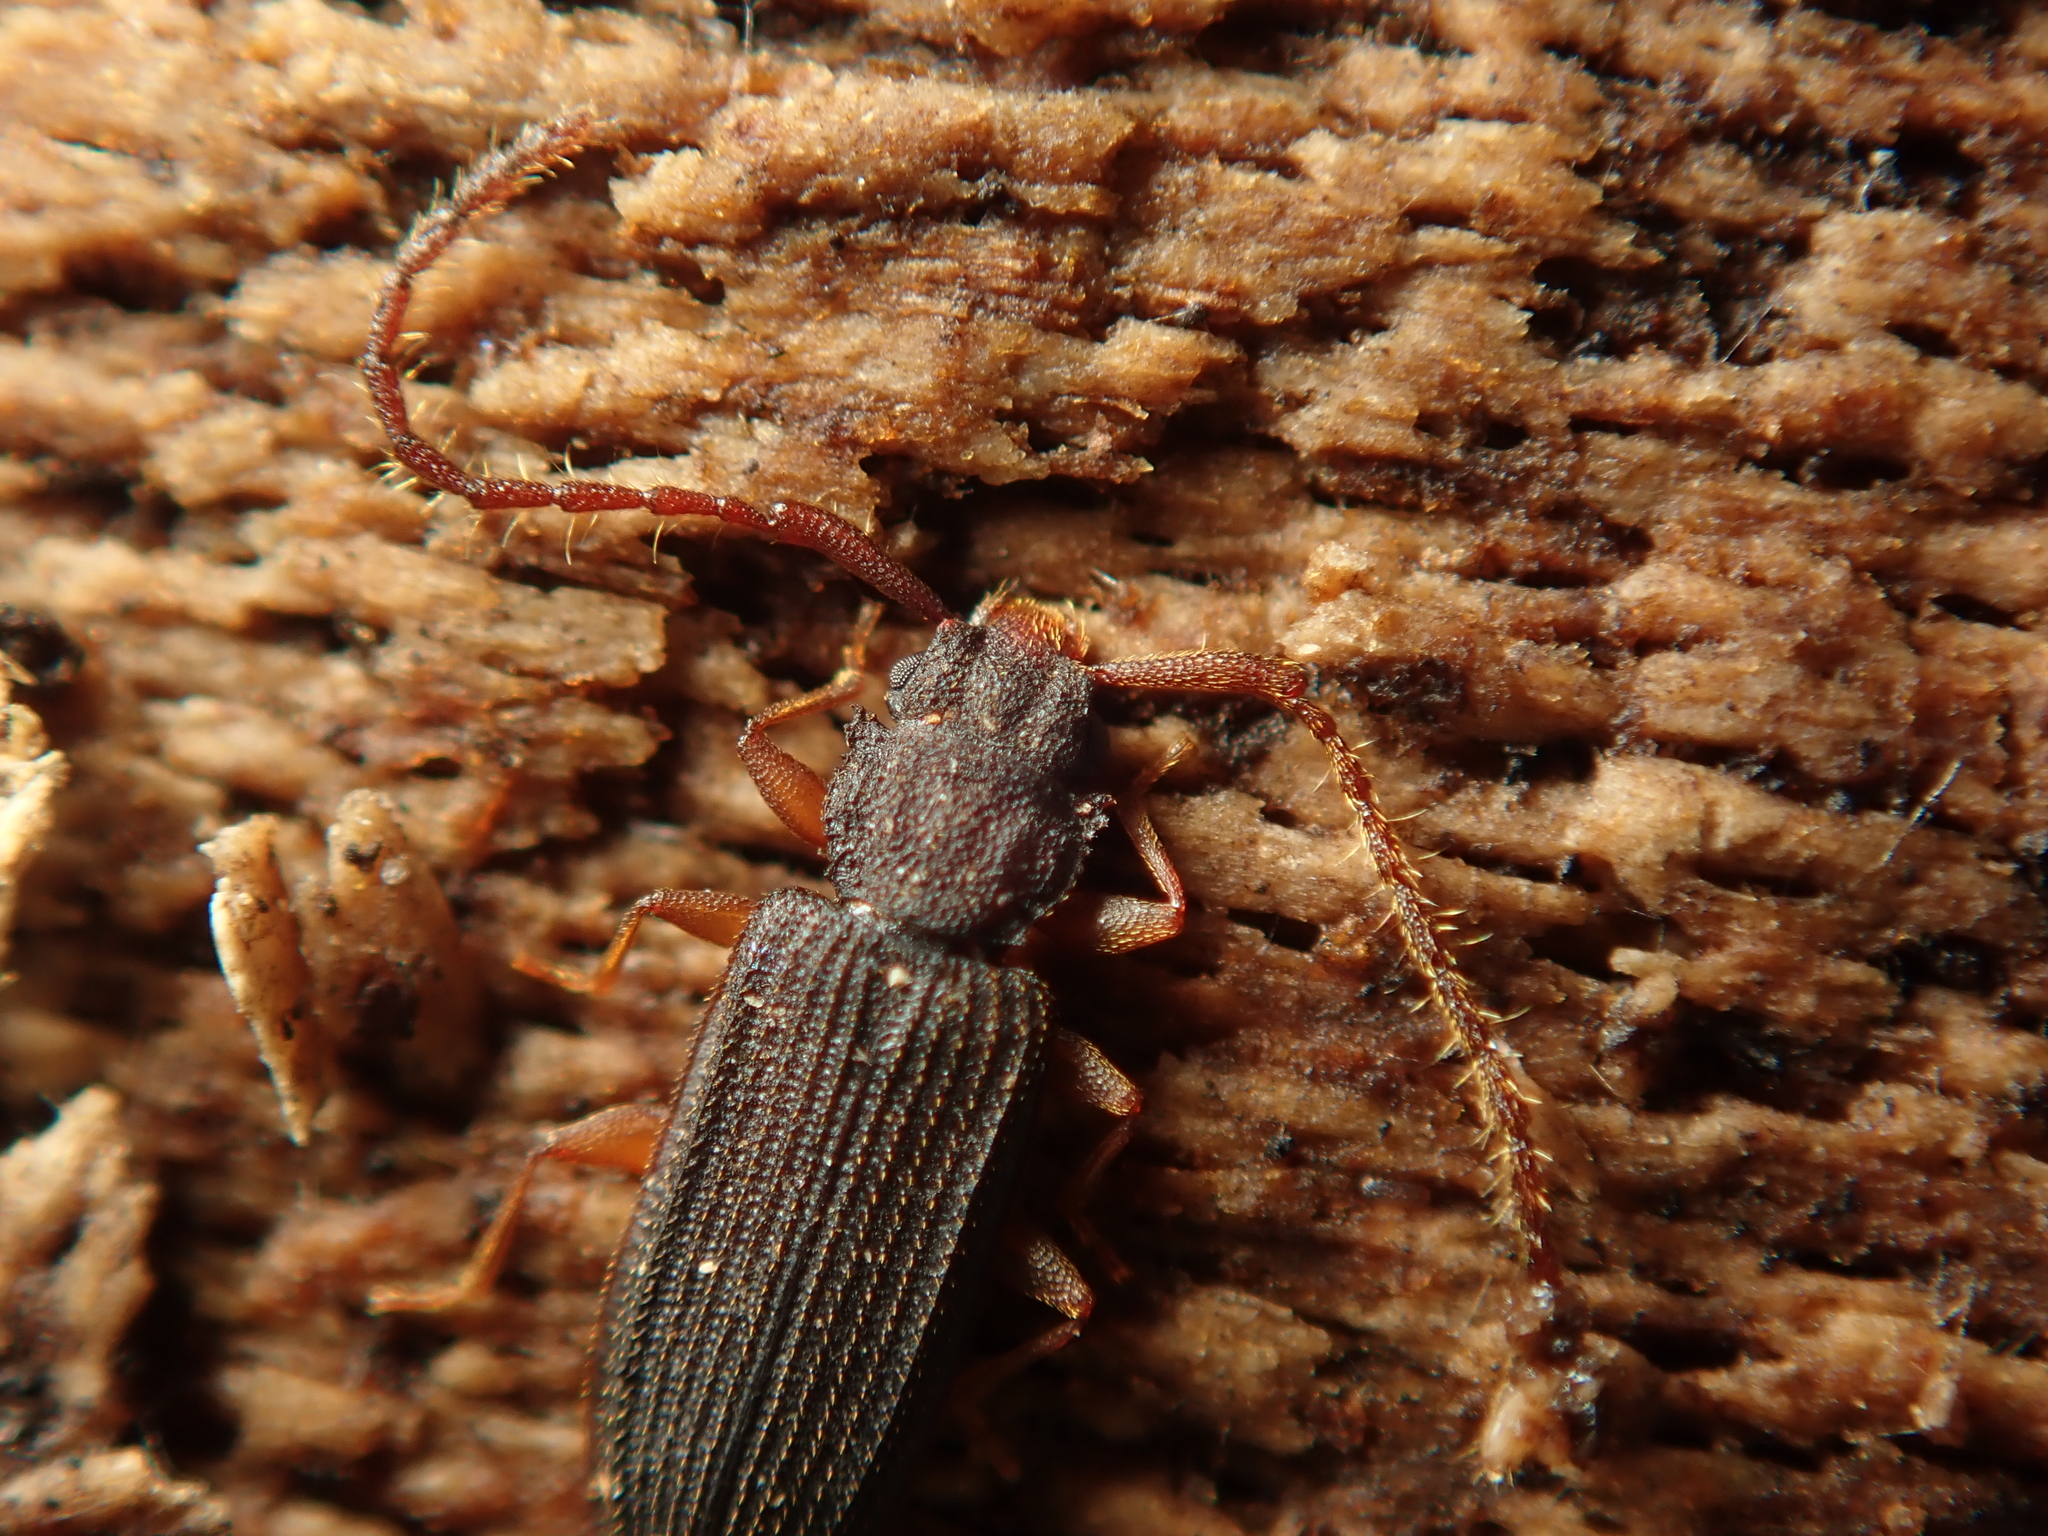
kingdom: Animalia
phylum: Arthropoda
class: Insecta
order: Coleoptera
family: Silvanidae
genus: Uleiota
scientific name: Uleiota planatus
